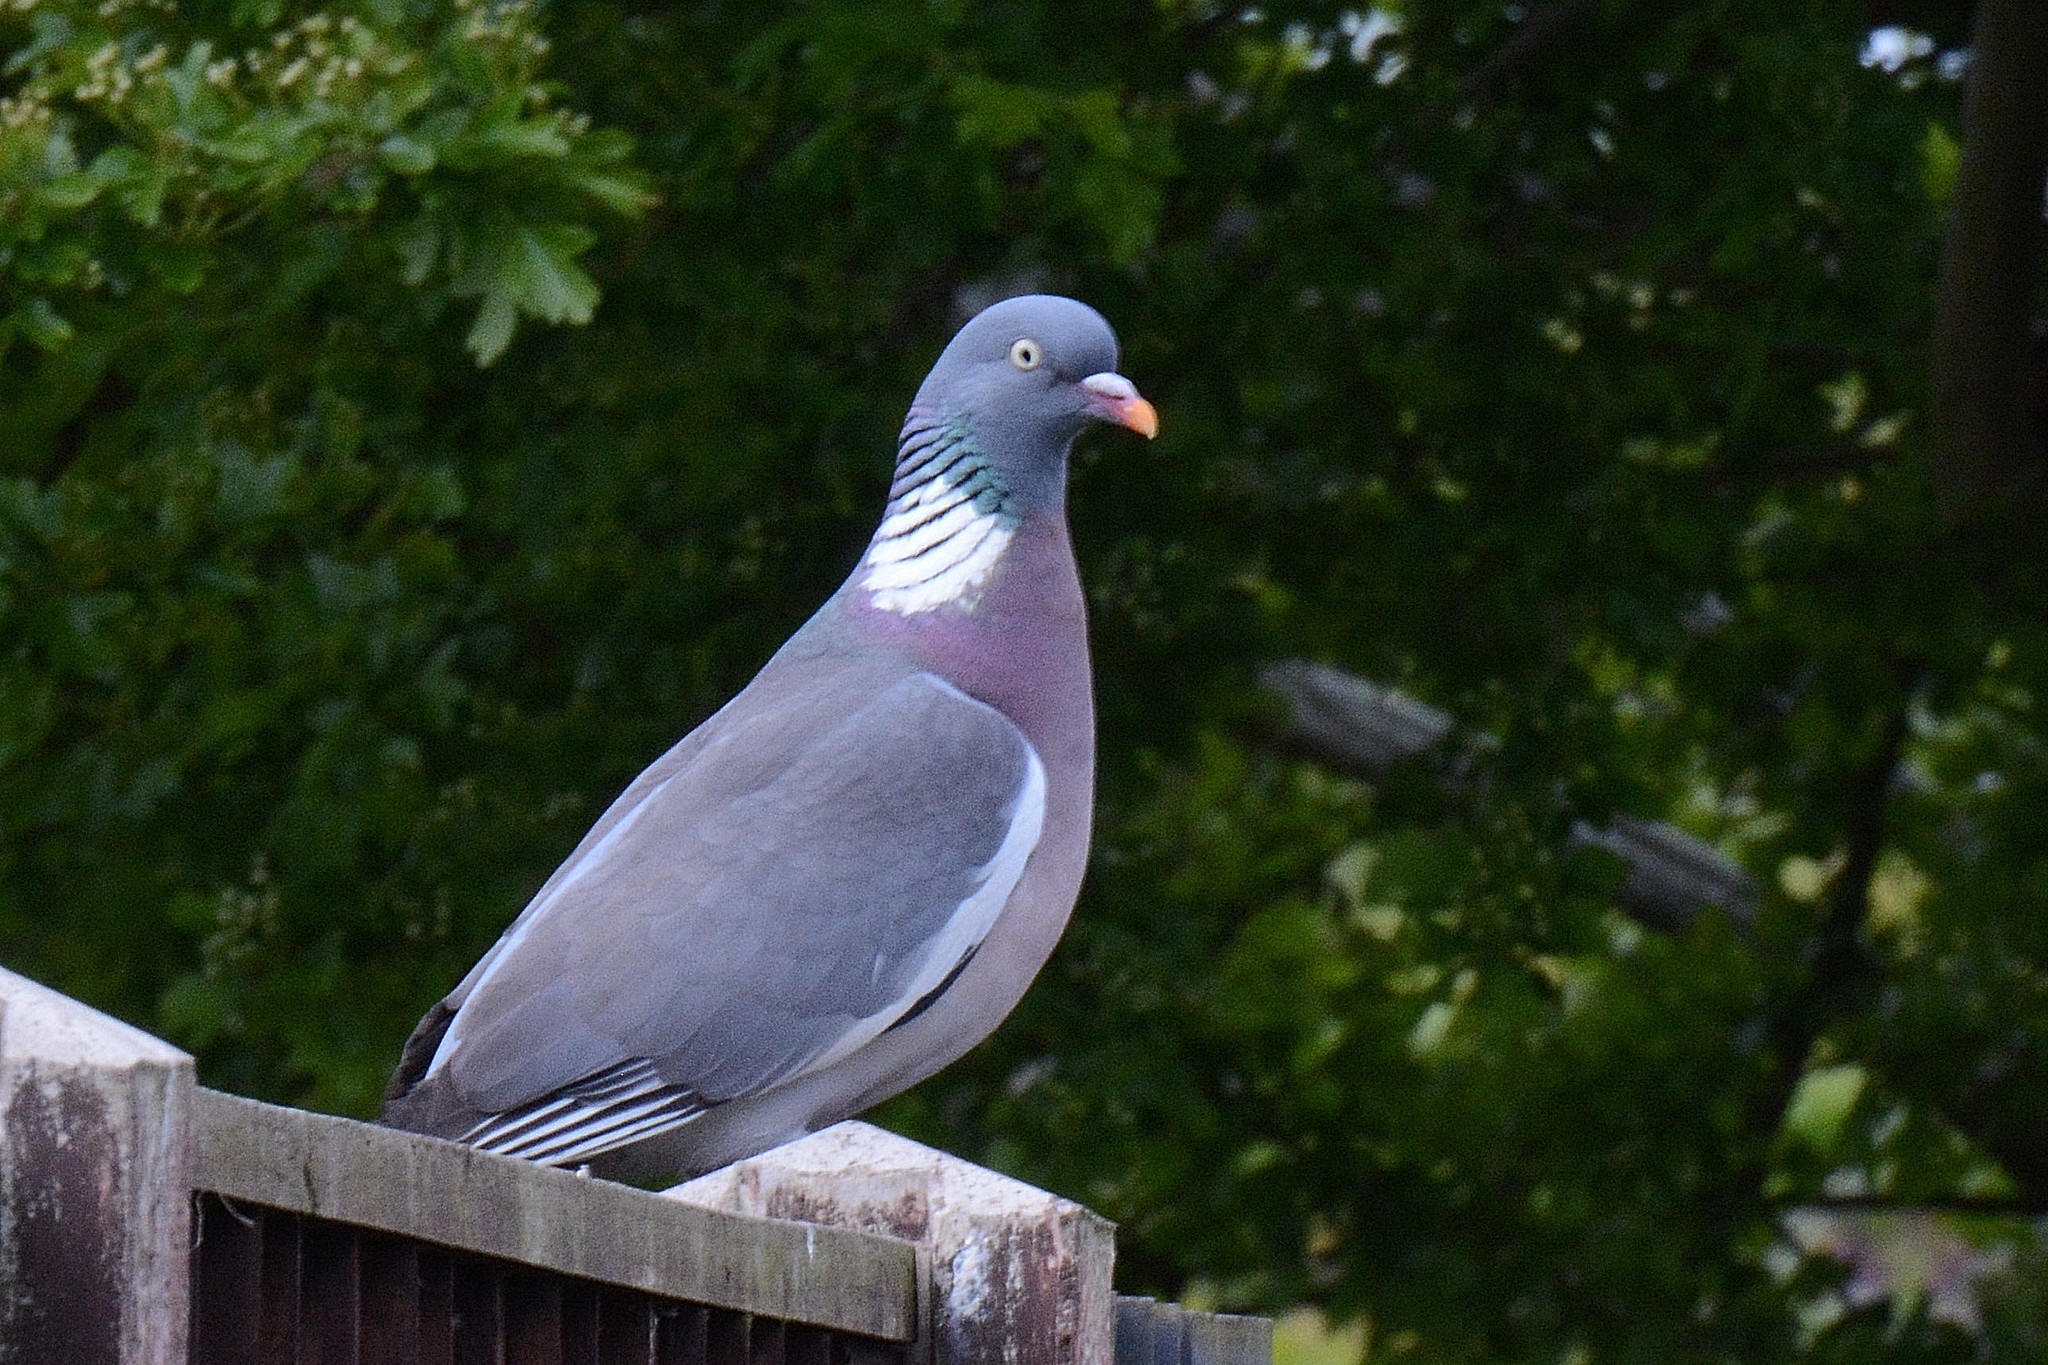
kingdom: Animalia
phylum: Chordata
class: Aves
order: Columbiformes
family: Columbidae
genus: Columba
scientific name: Columba palumbus
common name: Common wood pigeon
